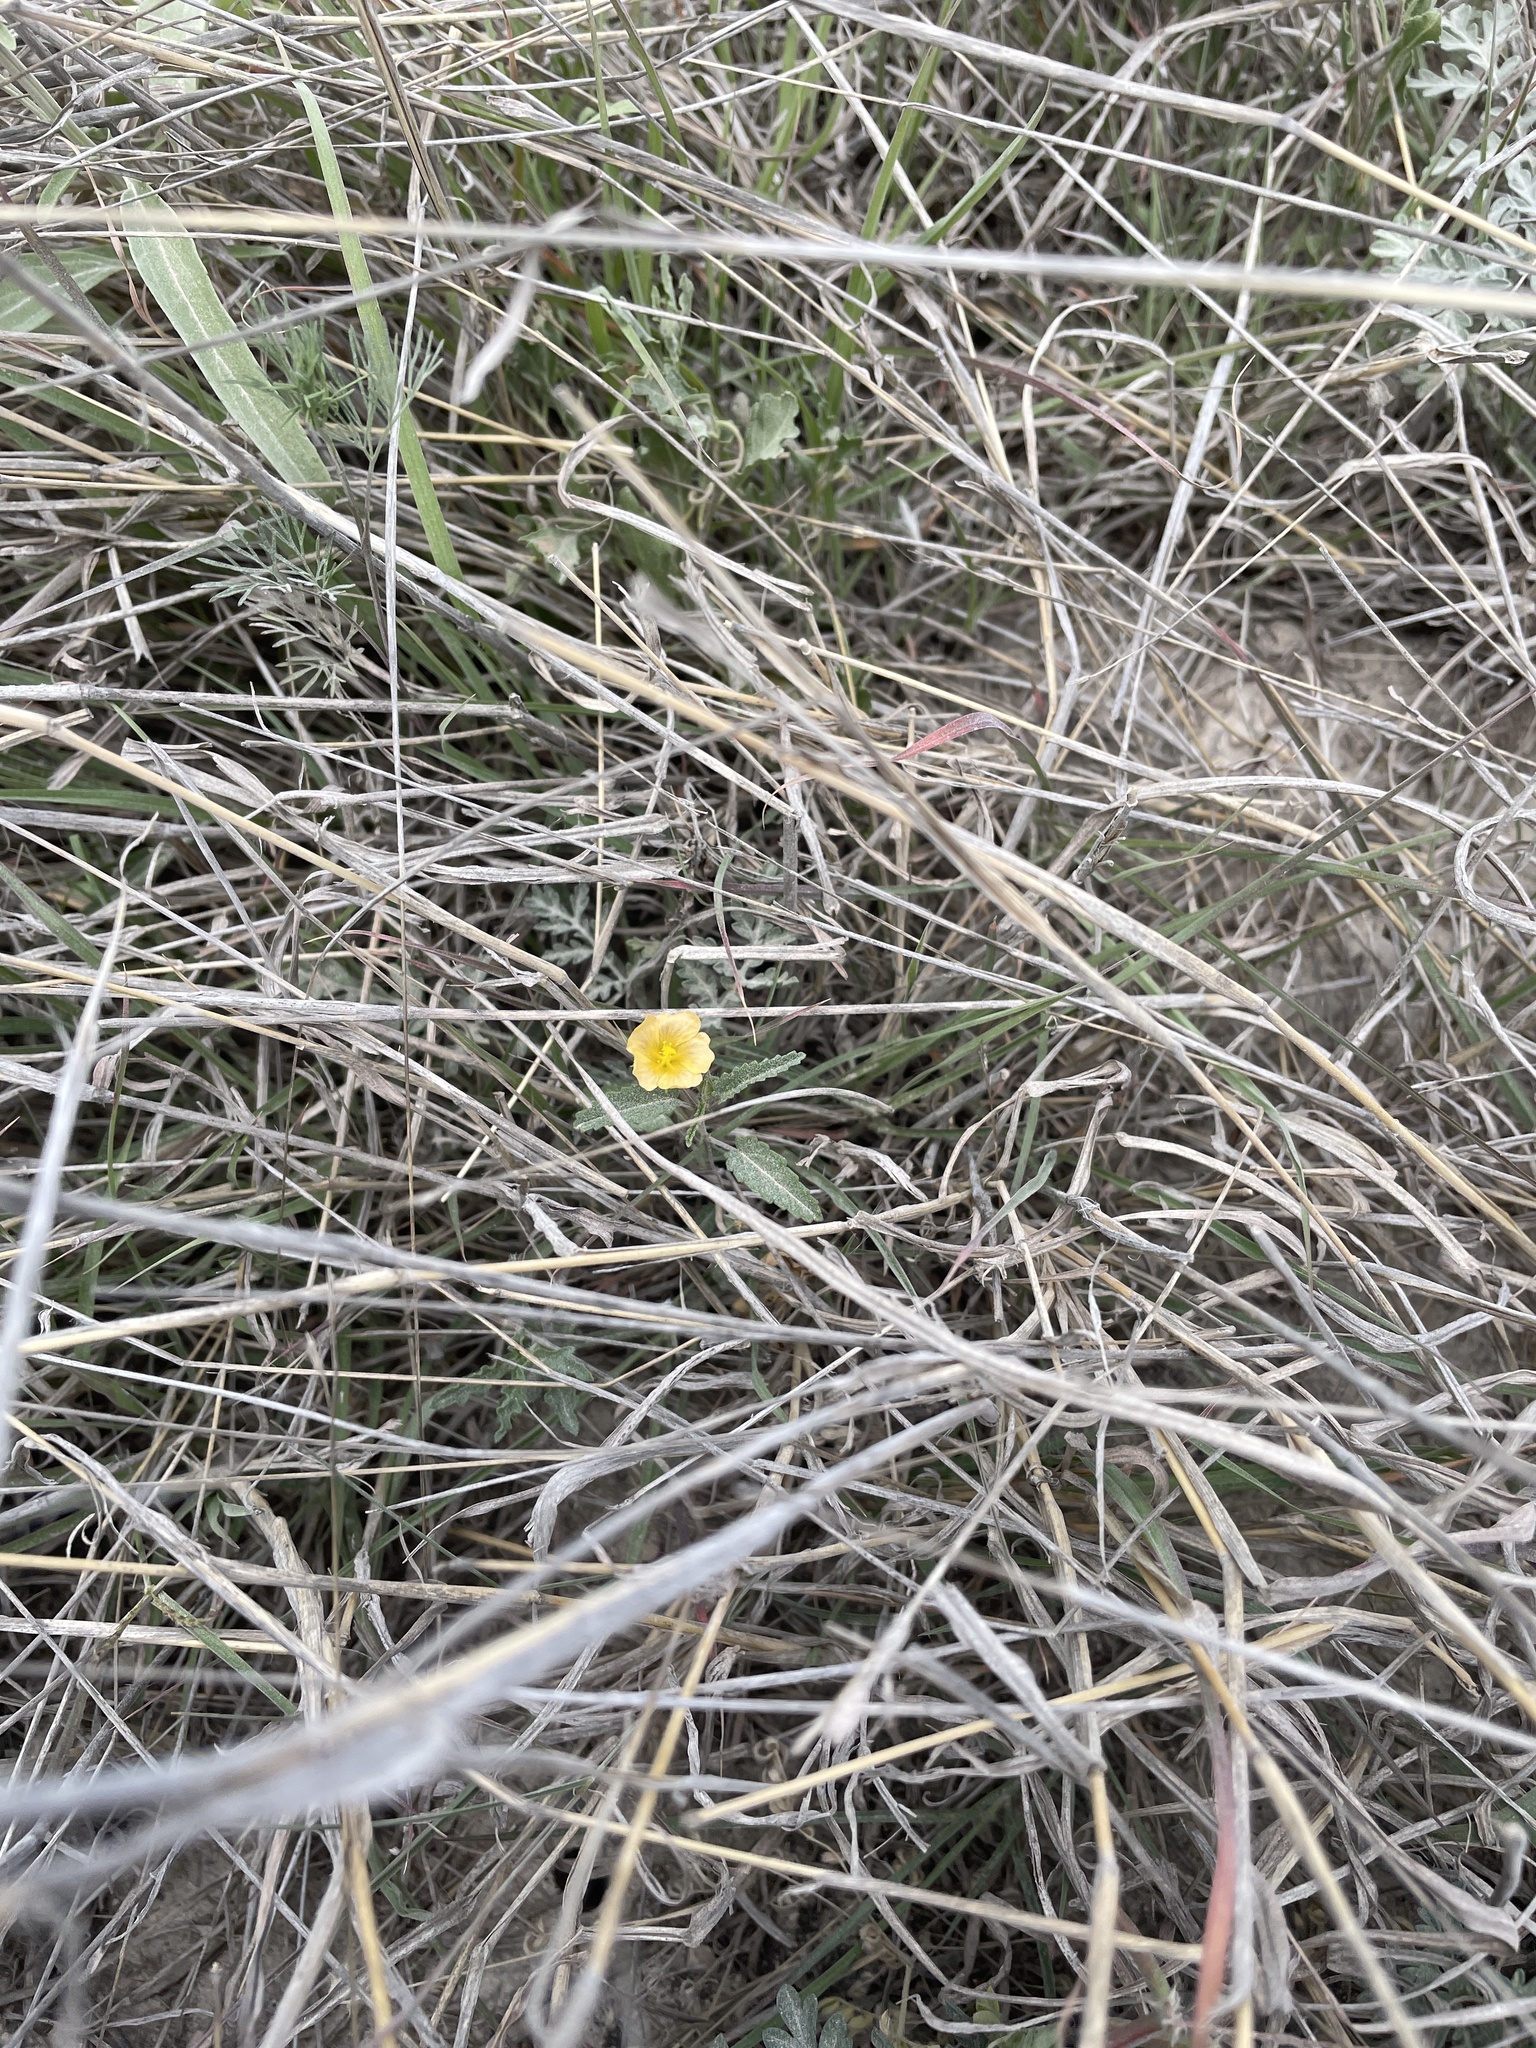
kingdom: Plantae
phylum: Tracheophyta
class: Magnoliopsida
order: Malvales
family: Malvaceae
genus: Sida
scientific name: Sida abutilifolia
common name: Spreading fanpetals
